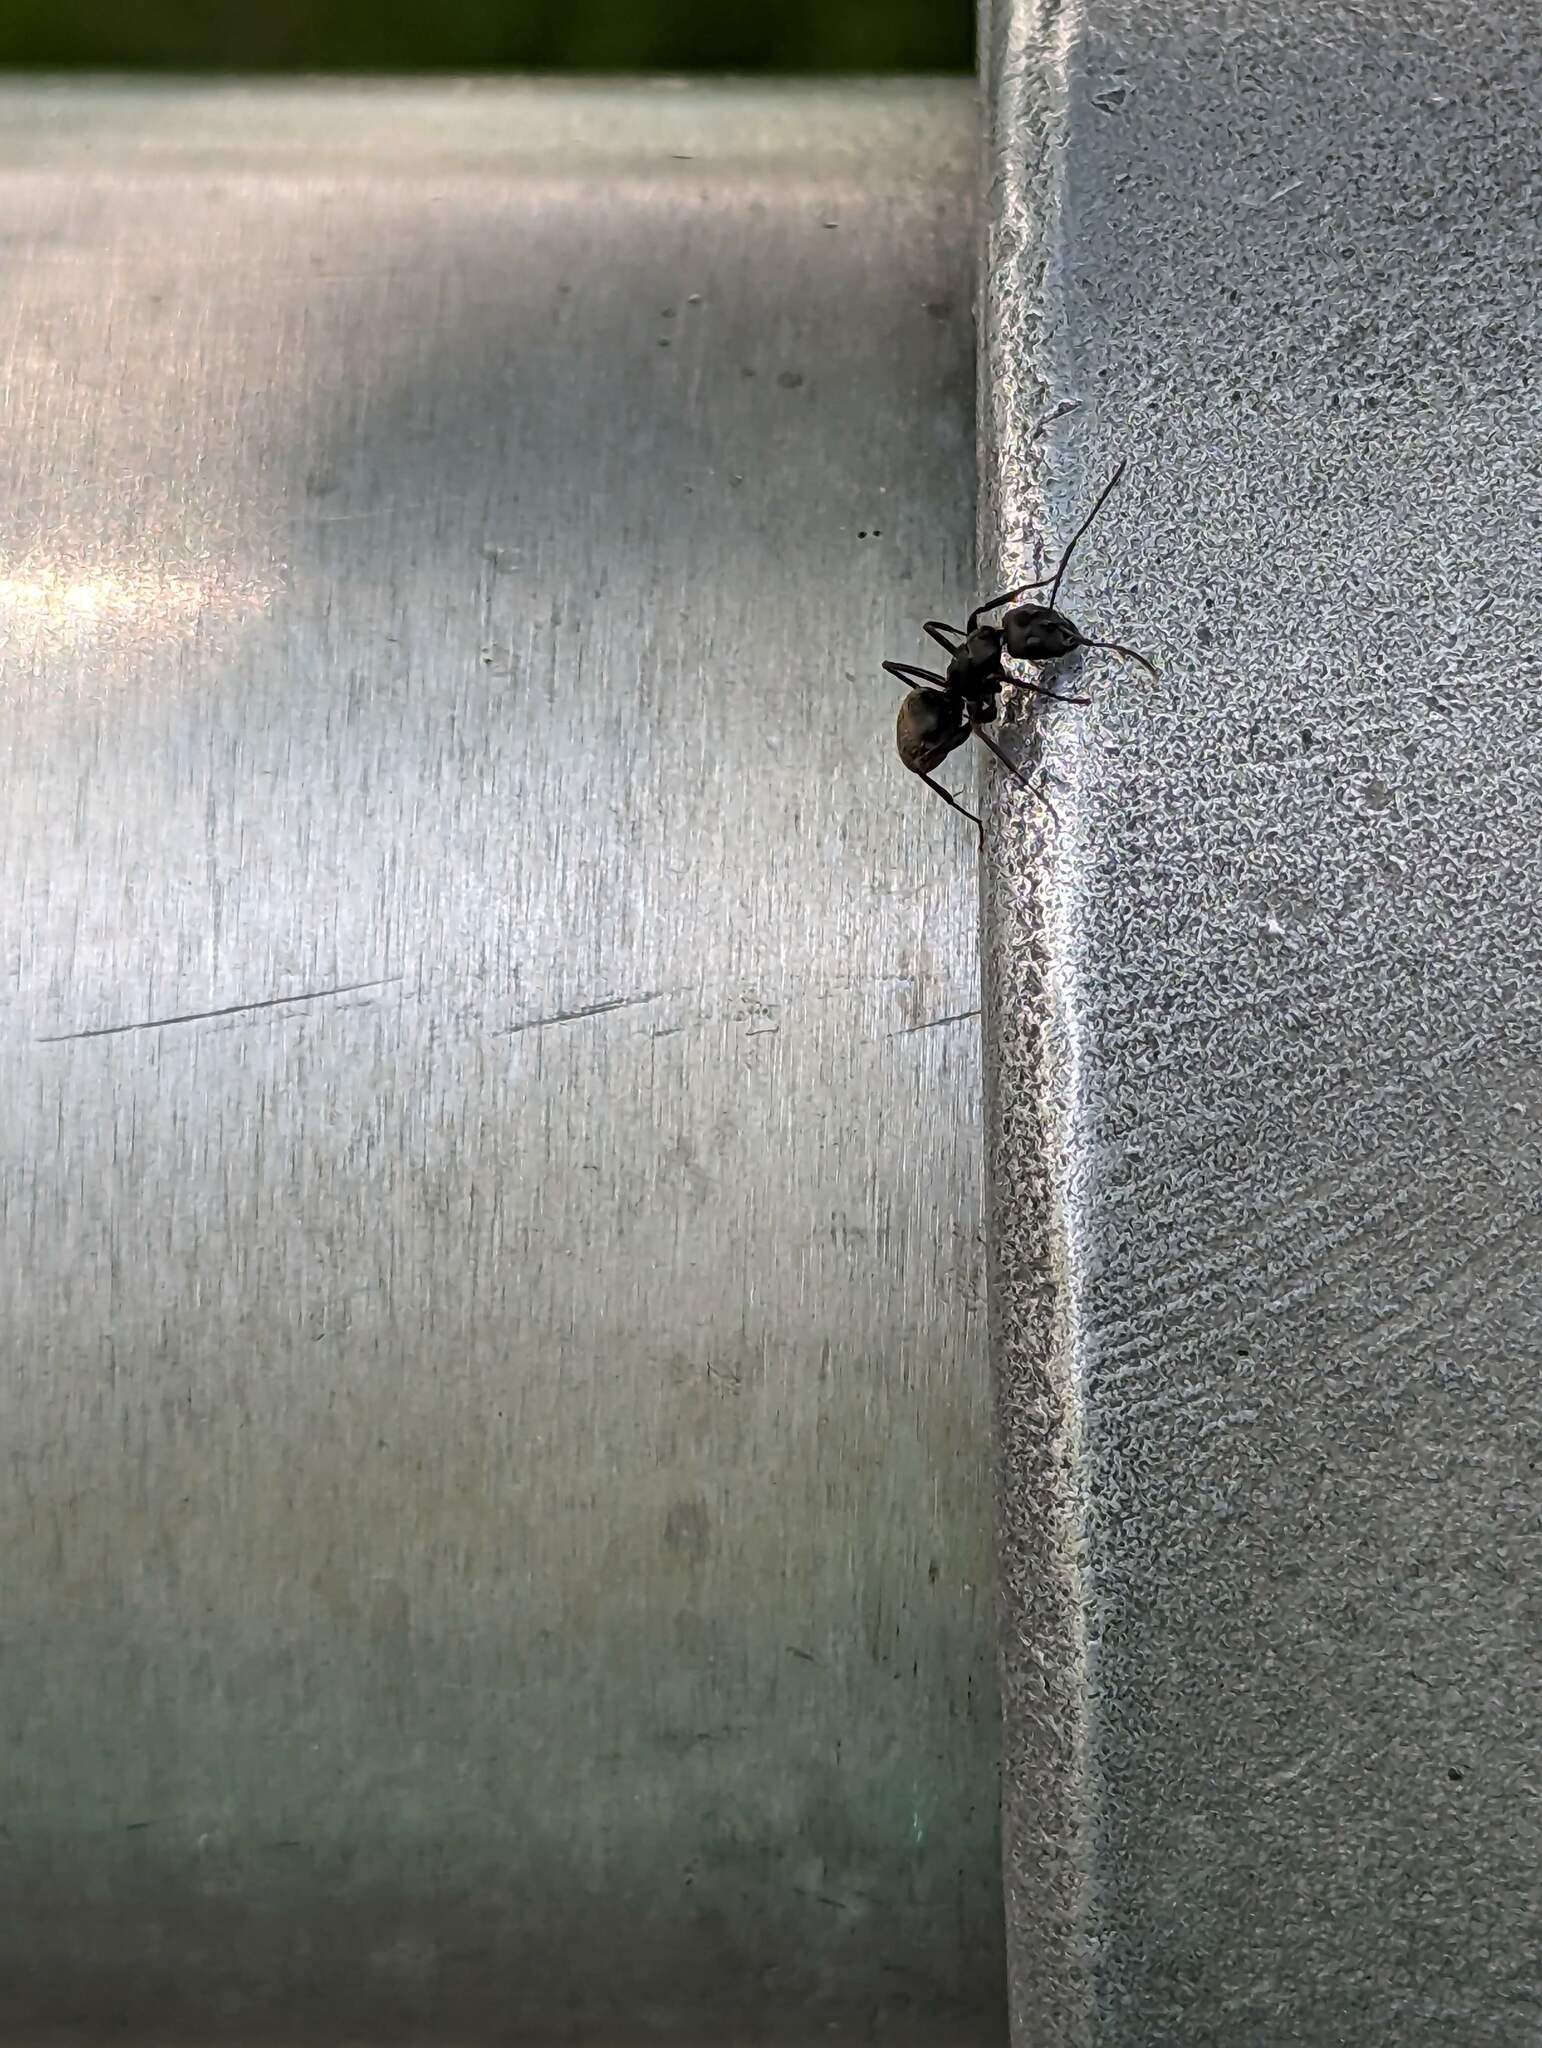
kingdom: Animalia
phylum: Arthropoda
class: Insecta
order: Hymenoptera
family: Formicidae
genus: Camponotus
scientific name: Camponotus pennsylvanicus
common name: Black carpenter ant
